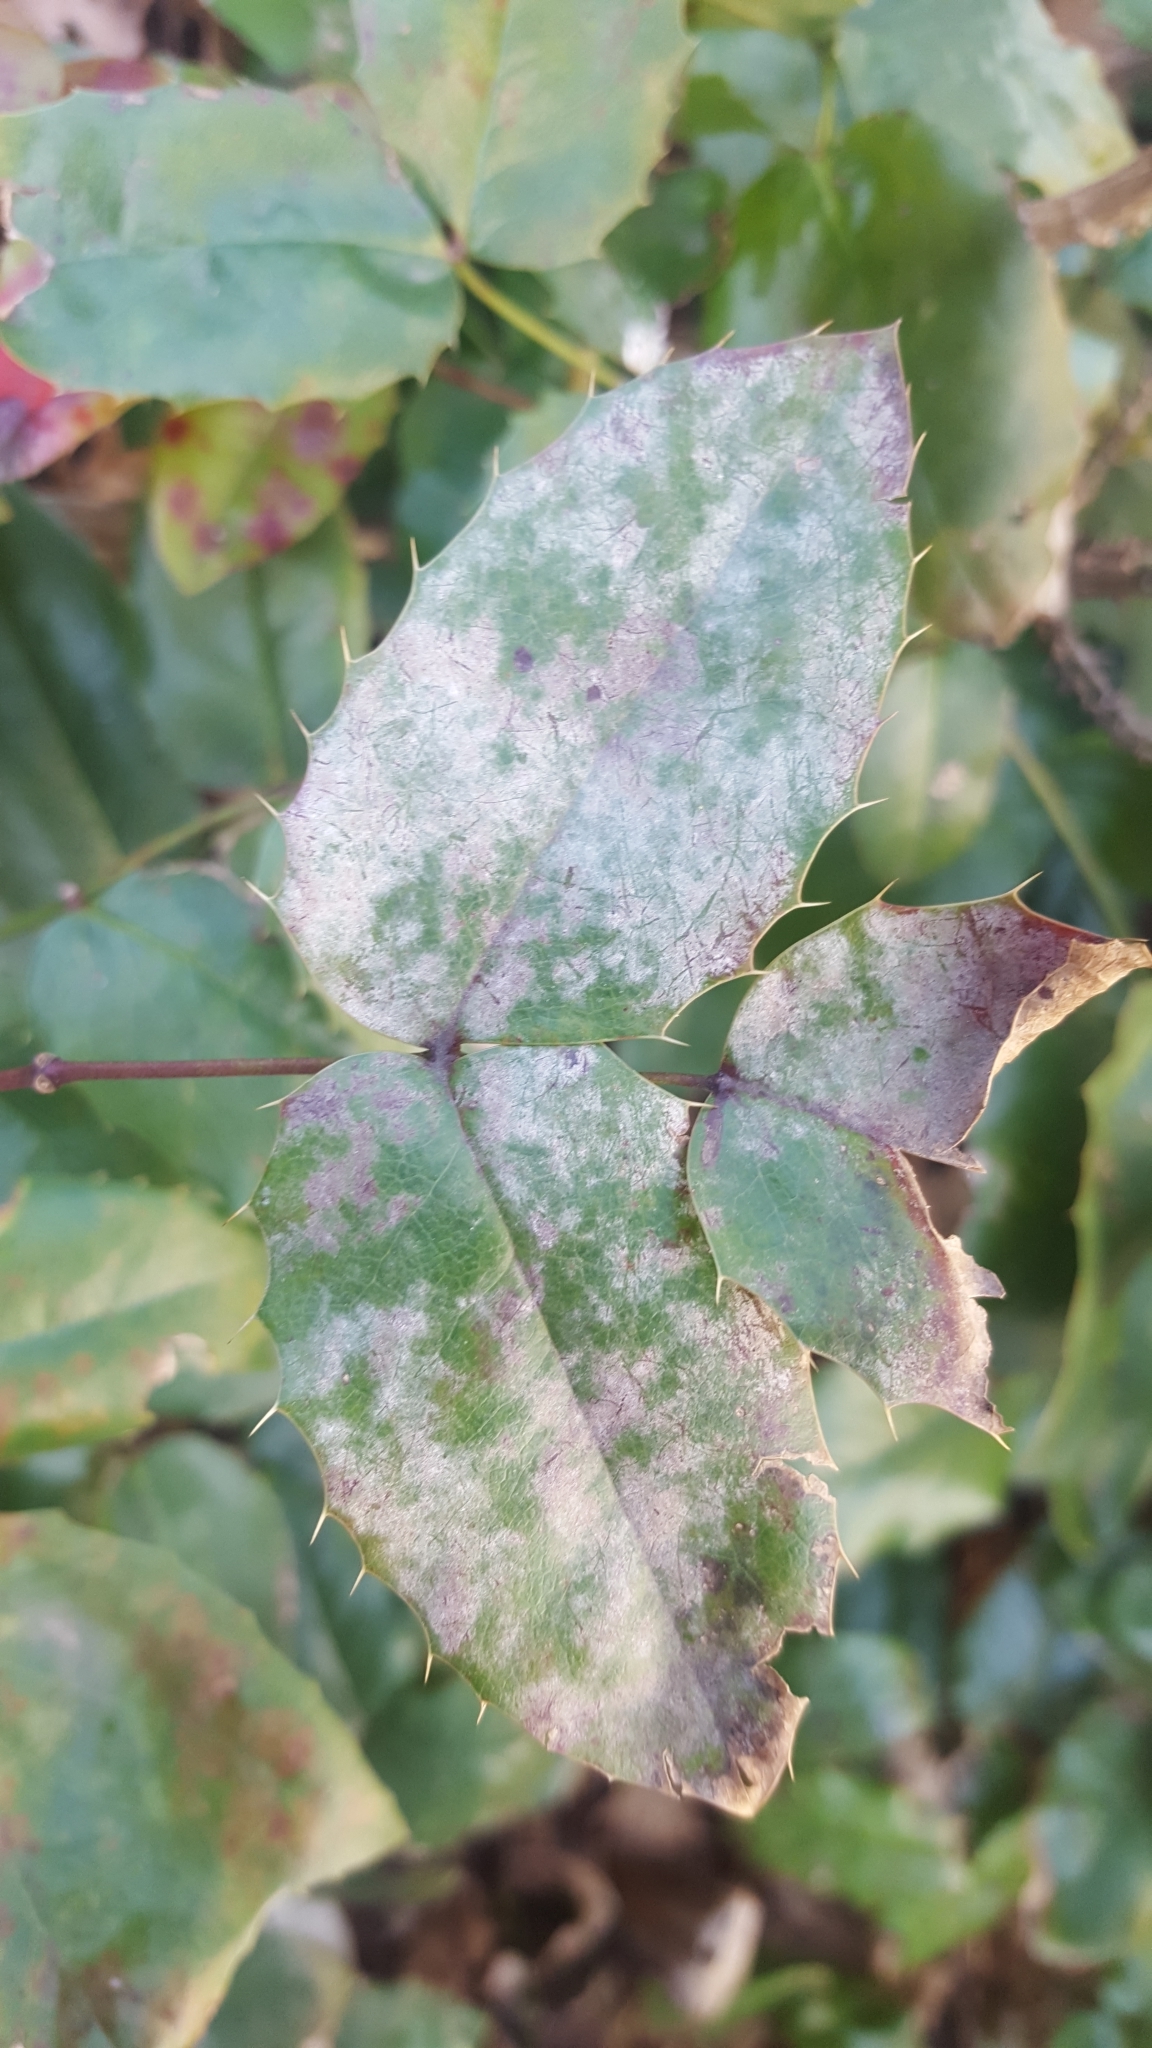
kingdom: Plantae
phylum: Tracheophyta
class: Magnoliopsida
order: Ranunculales
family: Berberidaceae
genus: Mahonia
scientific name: Mahonia aquifolium
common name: Oregon-grape
